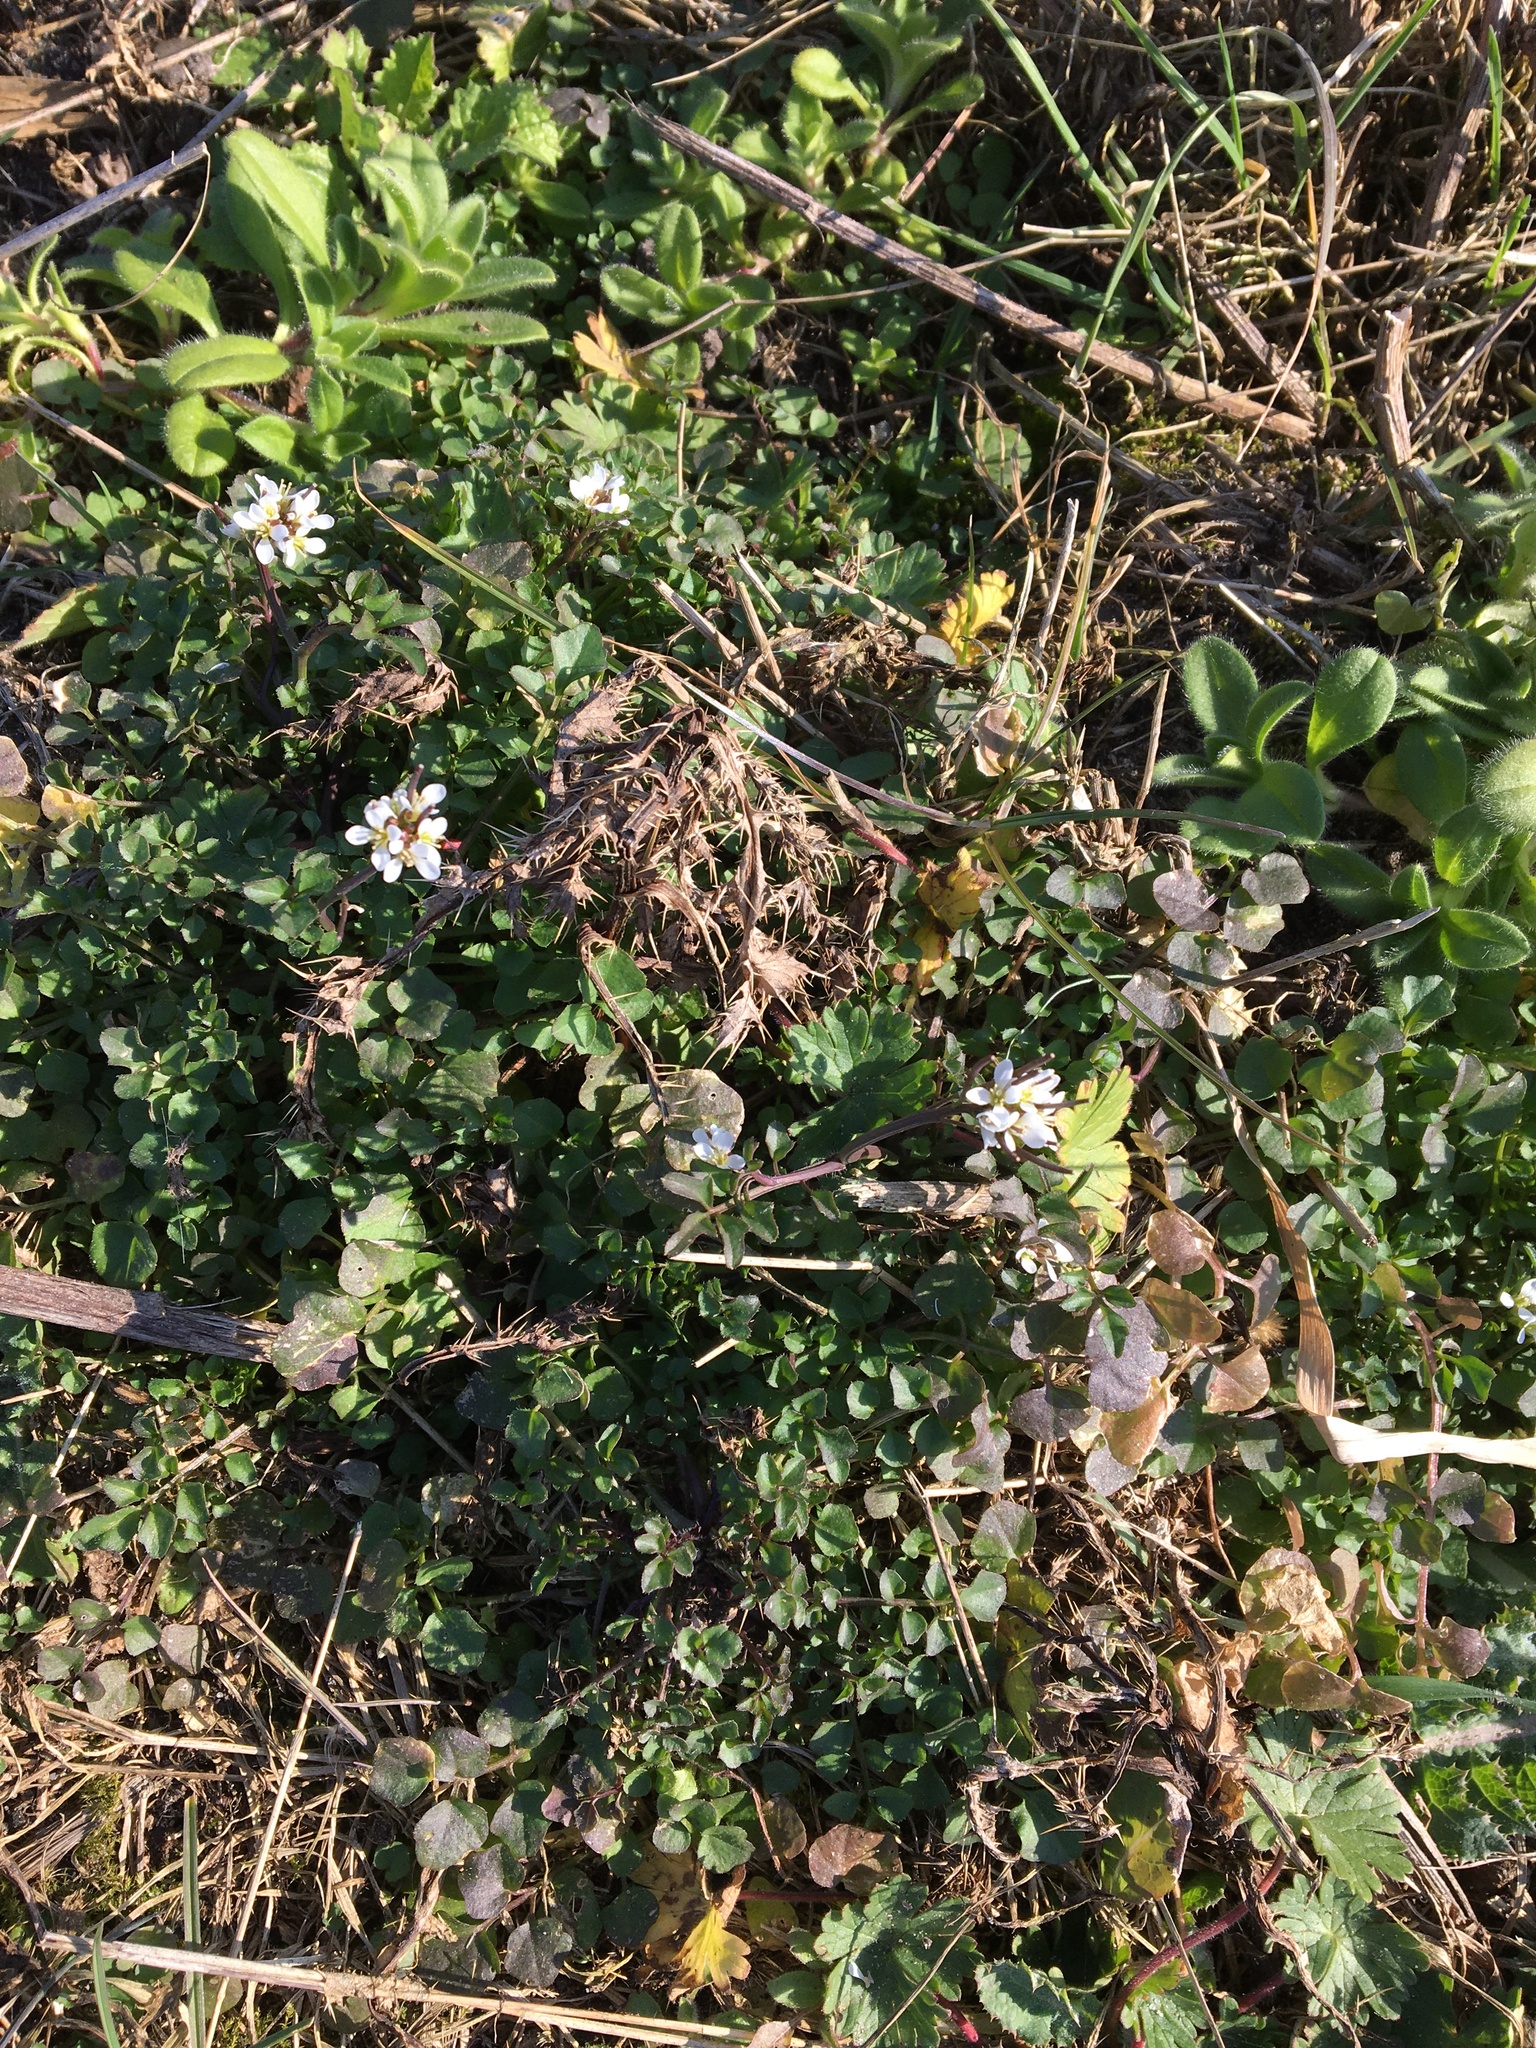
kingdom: Plantae
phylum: Tracheophyta
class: Magnoliopsida
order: Brassicales
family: Brassicaceae
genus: Cardamine
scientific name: Cardamine hirsuta
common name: Hairy bittercress
